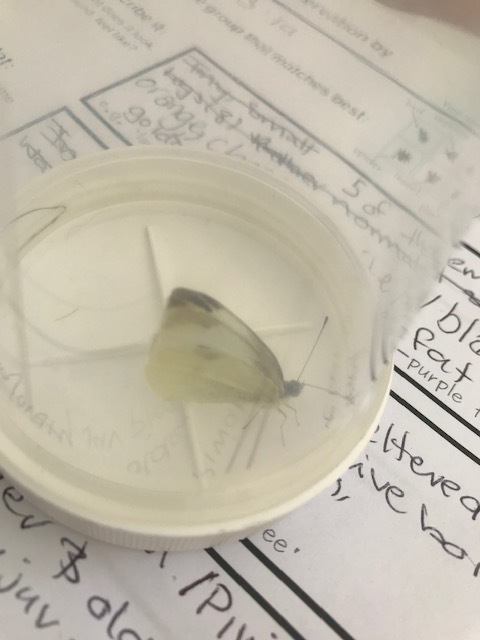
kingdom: Animalia
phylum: Arthropoda
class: Insecta
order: Lepidoptera
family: Pieridae
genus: Pieris
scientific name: Pieris rapae
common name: Small white
